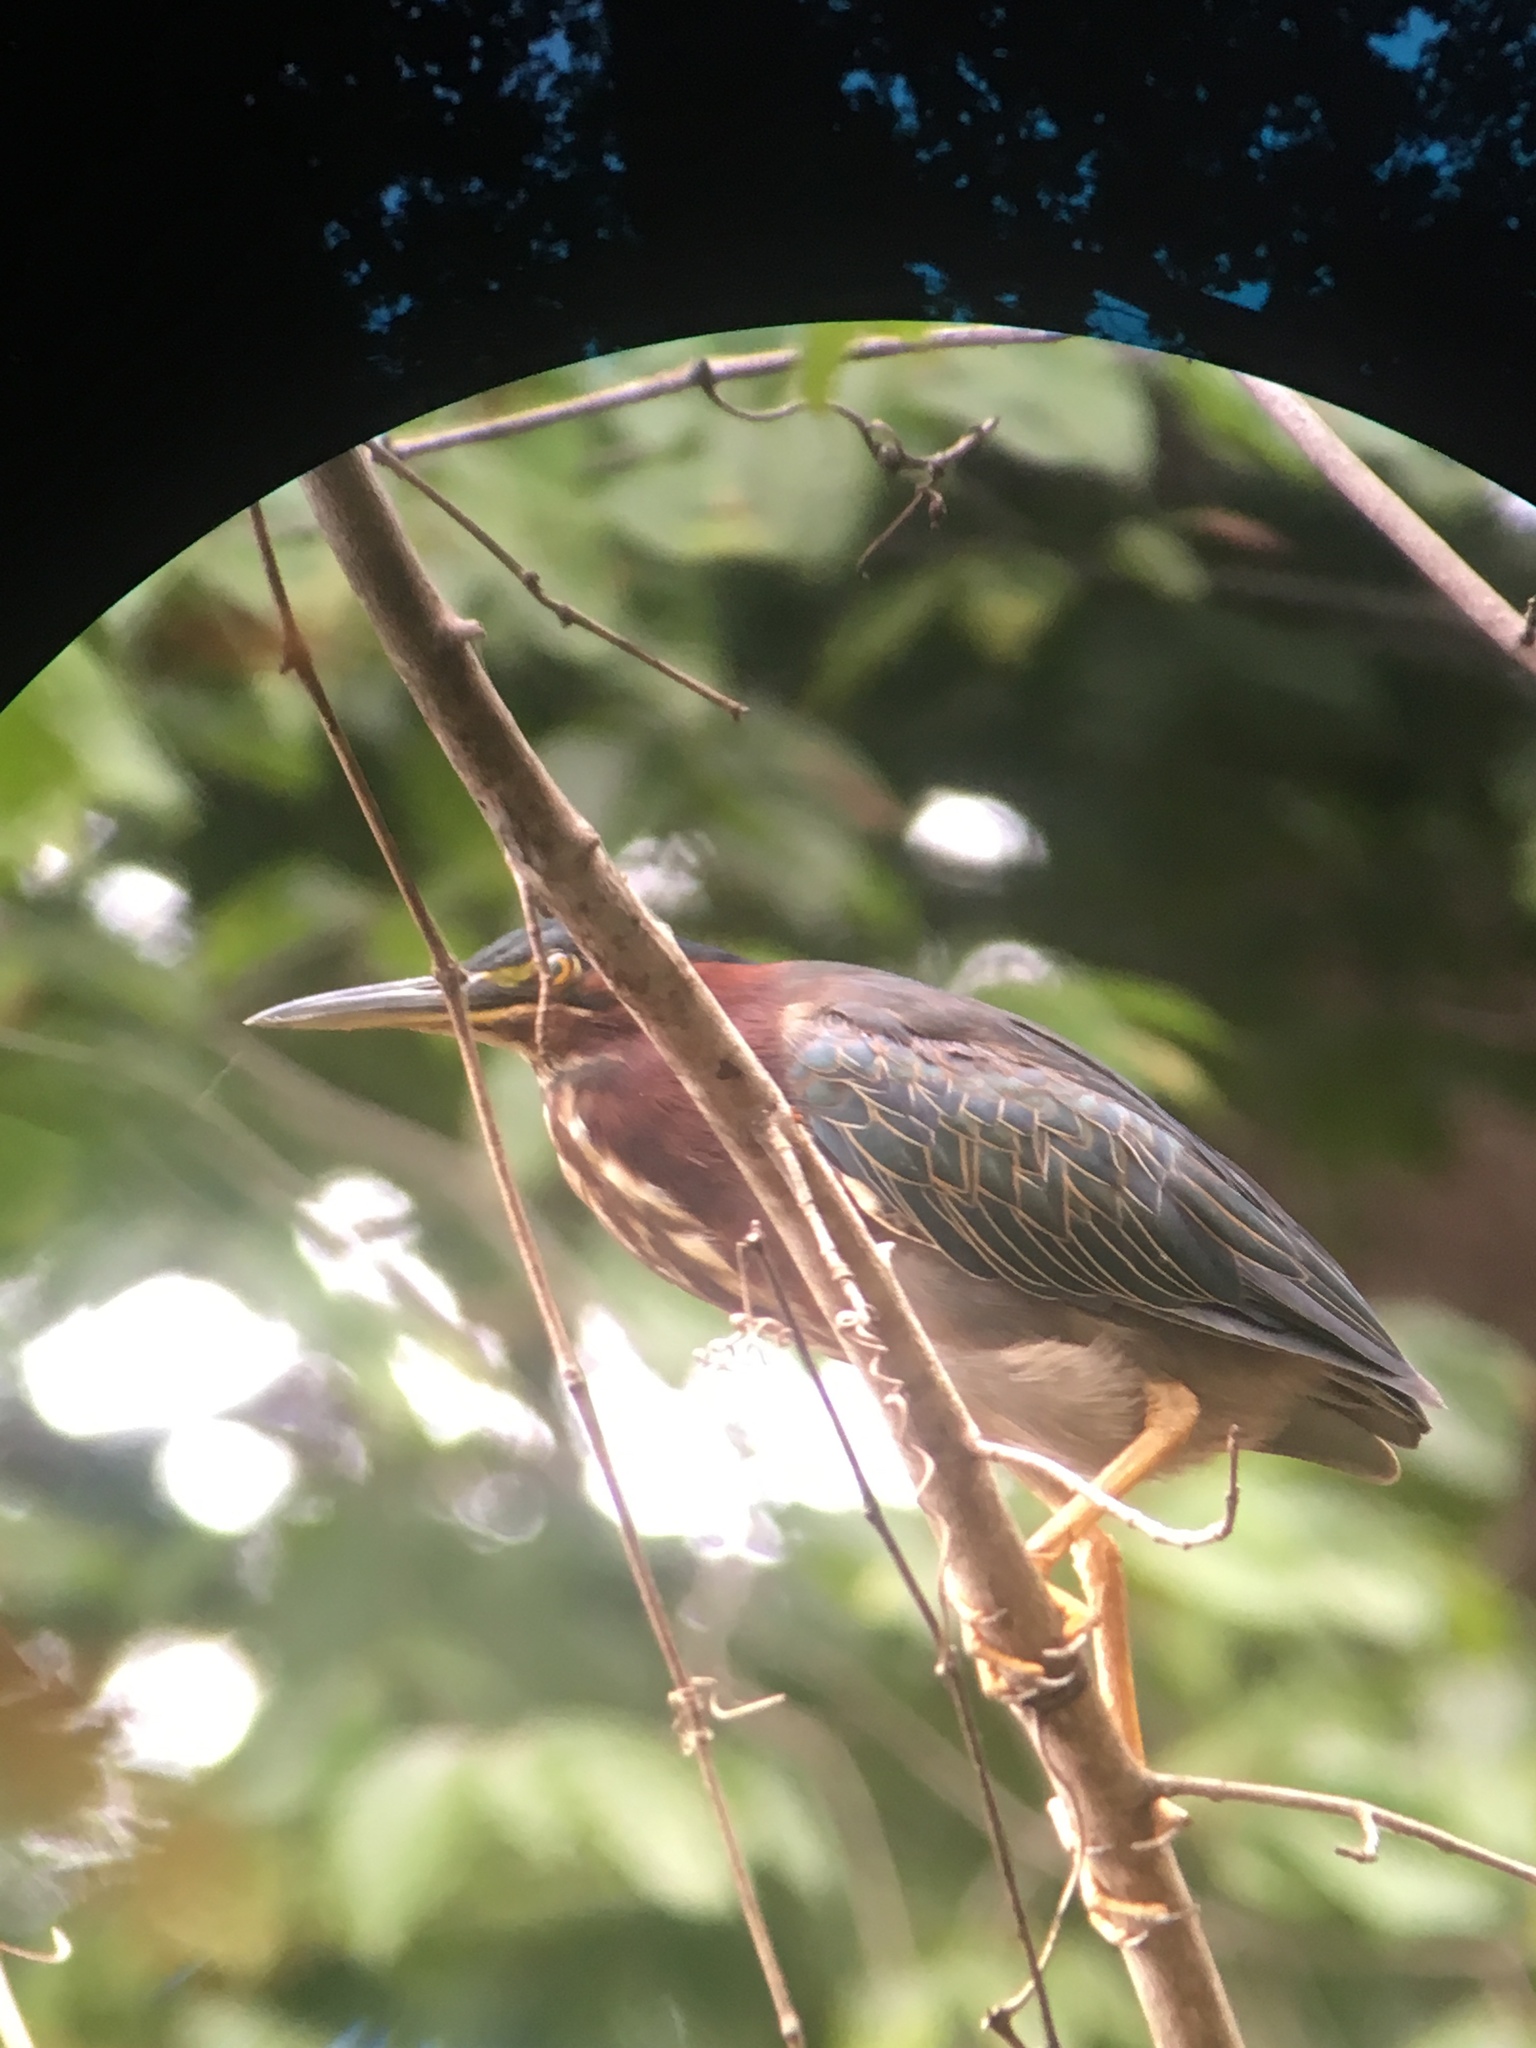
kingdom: Animalia
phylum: Chordata
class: Aves
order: Pelecaniformes
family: Ardeidae
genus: Butorides
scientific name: Butorides virescens
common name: Green heron
